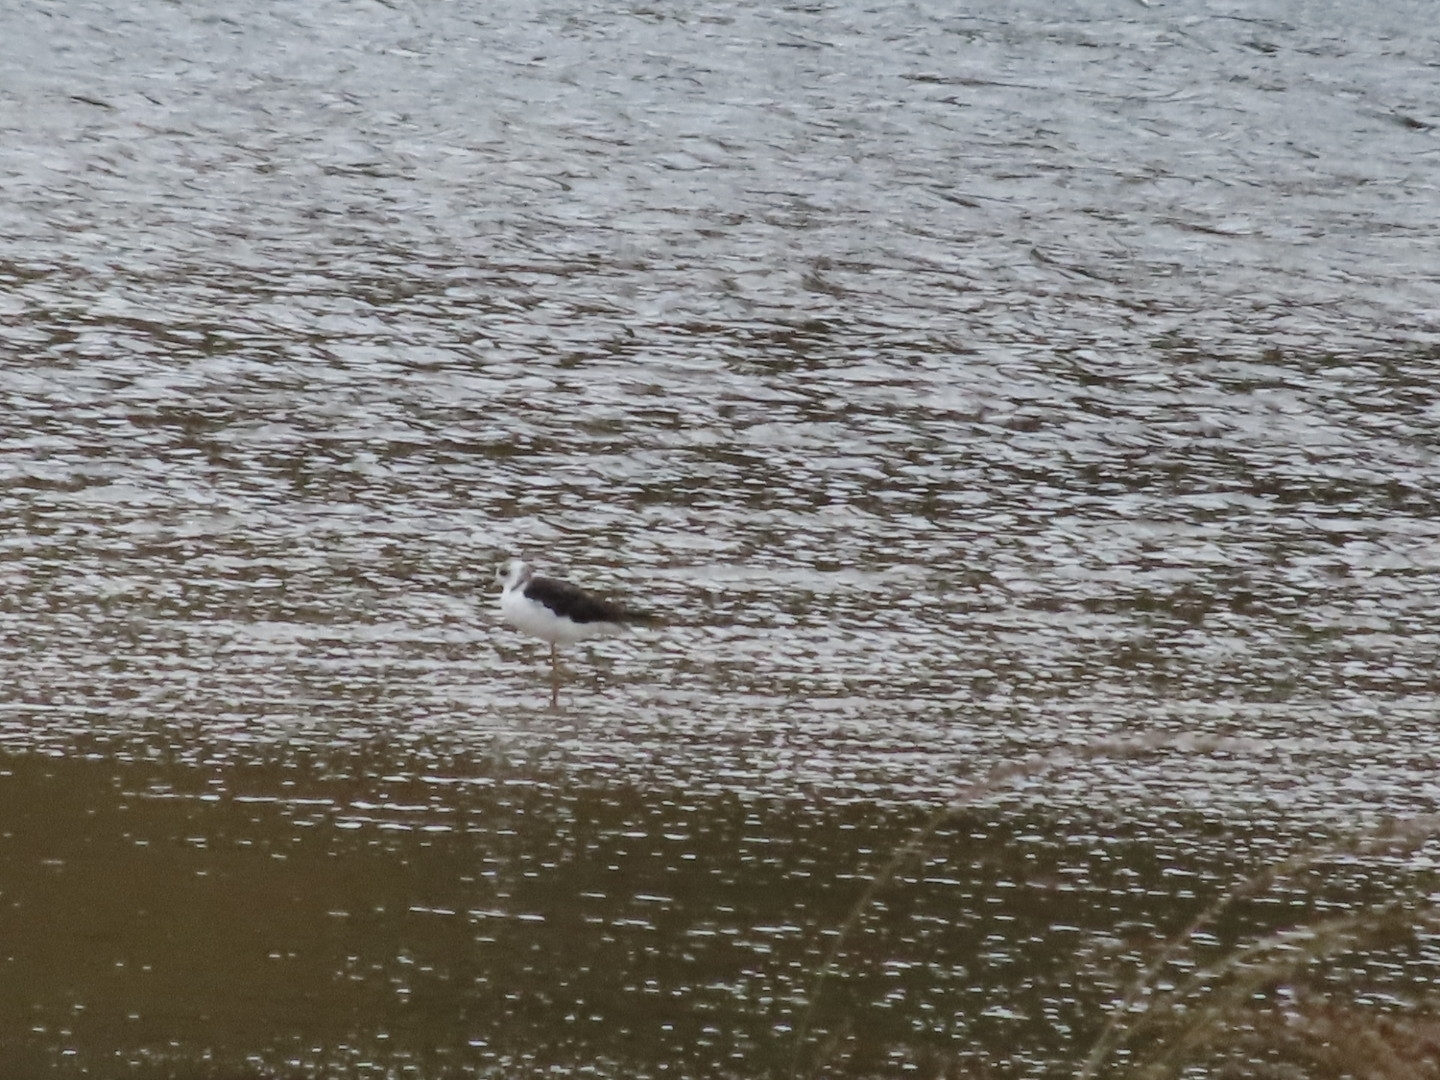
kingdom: Animalia
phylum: Chordata
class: Aves
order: Charadriiformes
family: Recurvirostridae
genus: Himantopus
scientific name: Himantopus leucocephalus
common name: White-headed stilt
